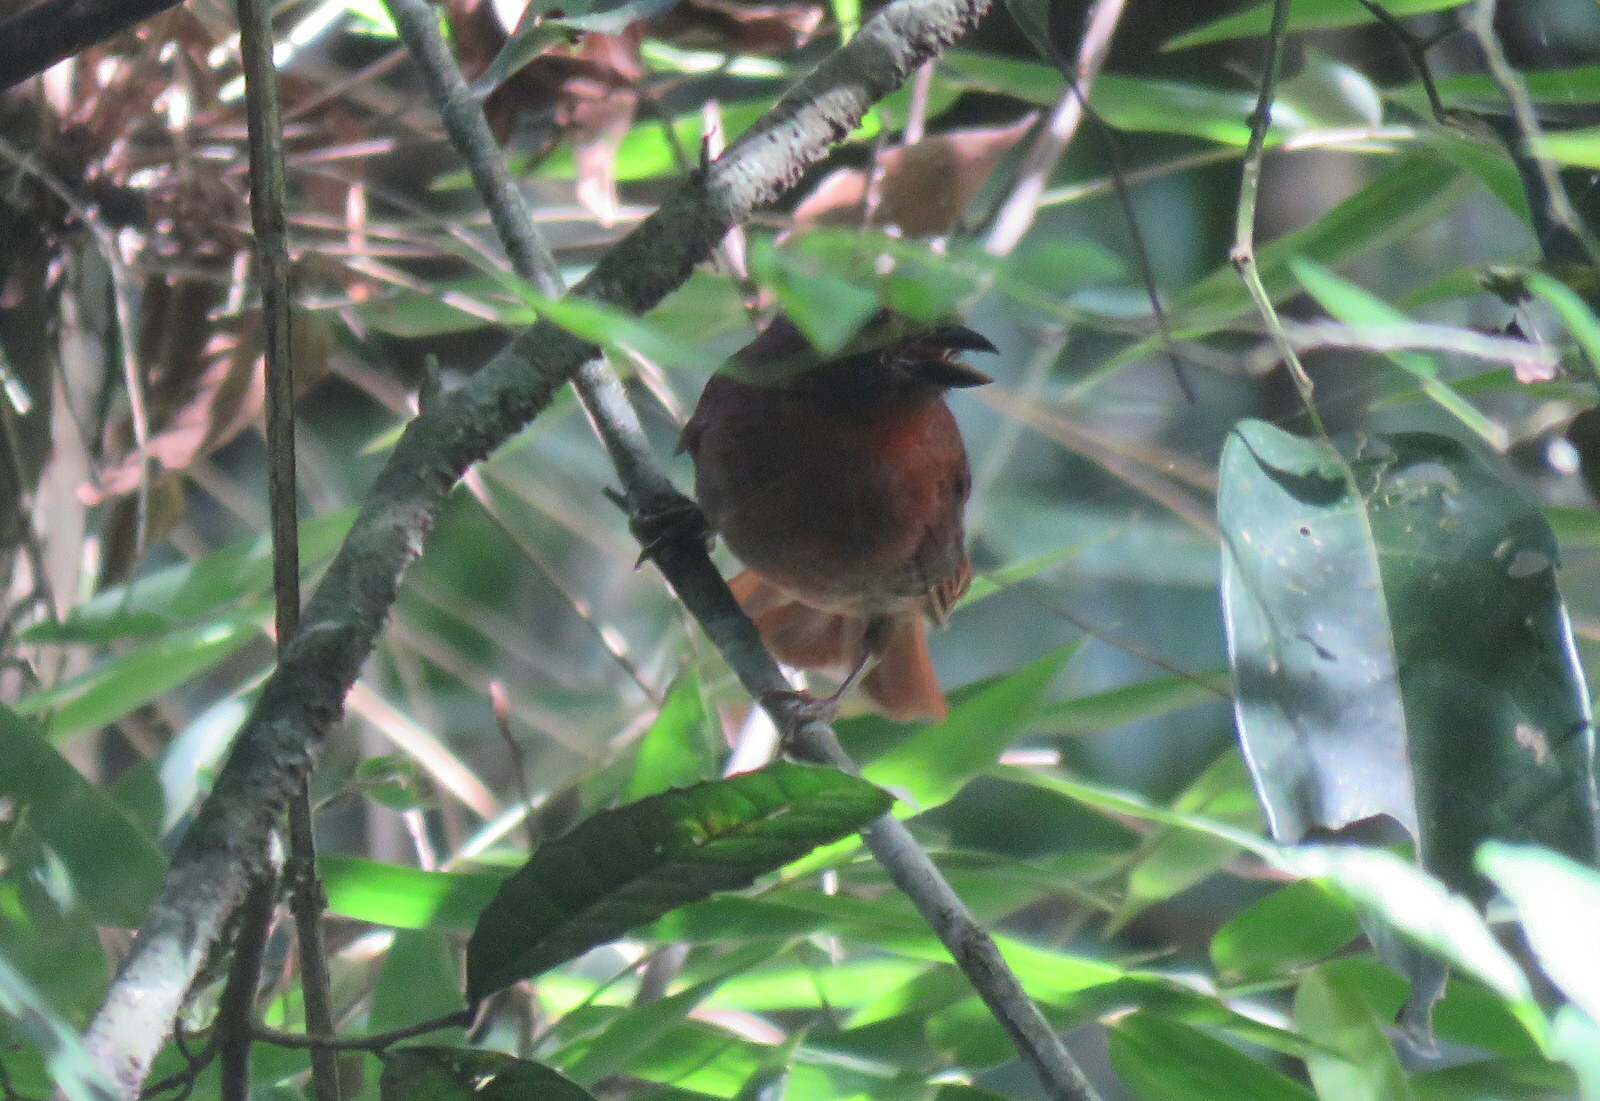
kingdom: Animalia
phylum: Chordata
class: Aves
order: Passeriformes
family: Cardinalidae
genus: Habia
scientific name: Habia rubica
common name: Red-crowned ant-tanager
